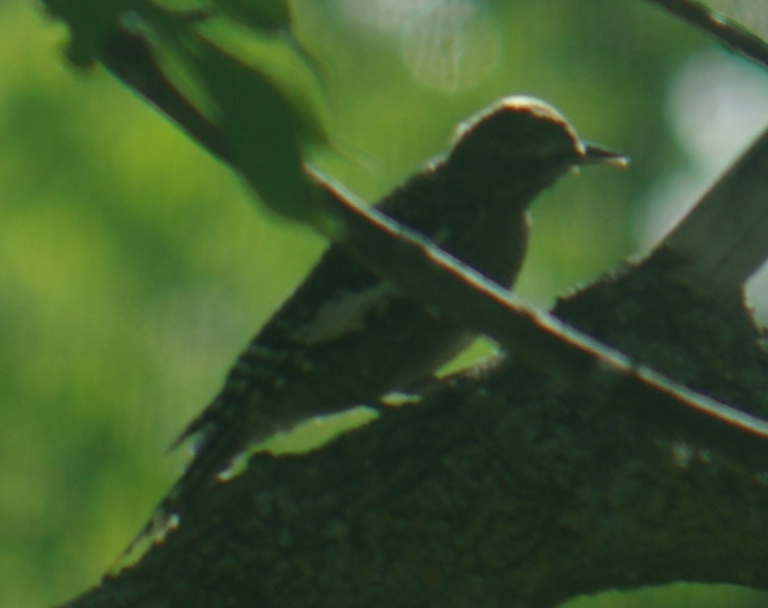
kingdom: Animalia
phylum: Chordata
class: Aves
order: Piciformes
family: Picidae
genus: Sphyrapicus
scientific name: Sphyrapicus varius
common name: Yellow-bellied sapsucker
